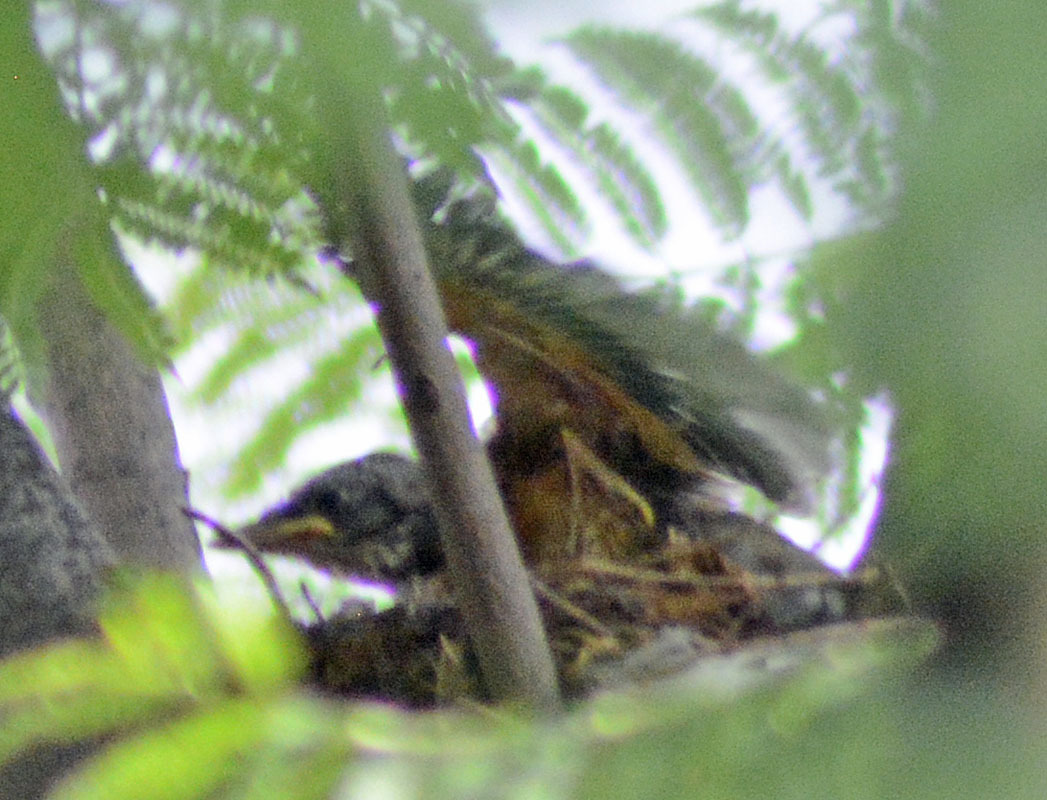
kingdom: Animalia
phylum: Chordata
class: Aves
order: Passeriformes
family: Turdidae
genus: Turdus
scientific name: Turdus rufopalliatus
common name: Rufous-backed robin
